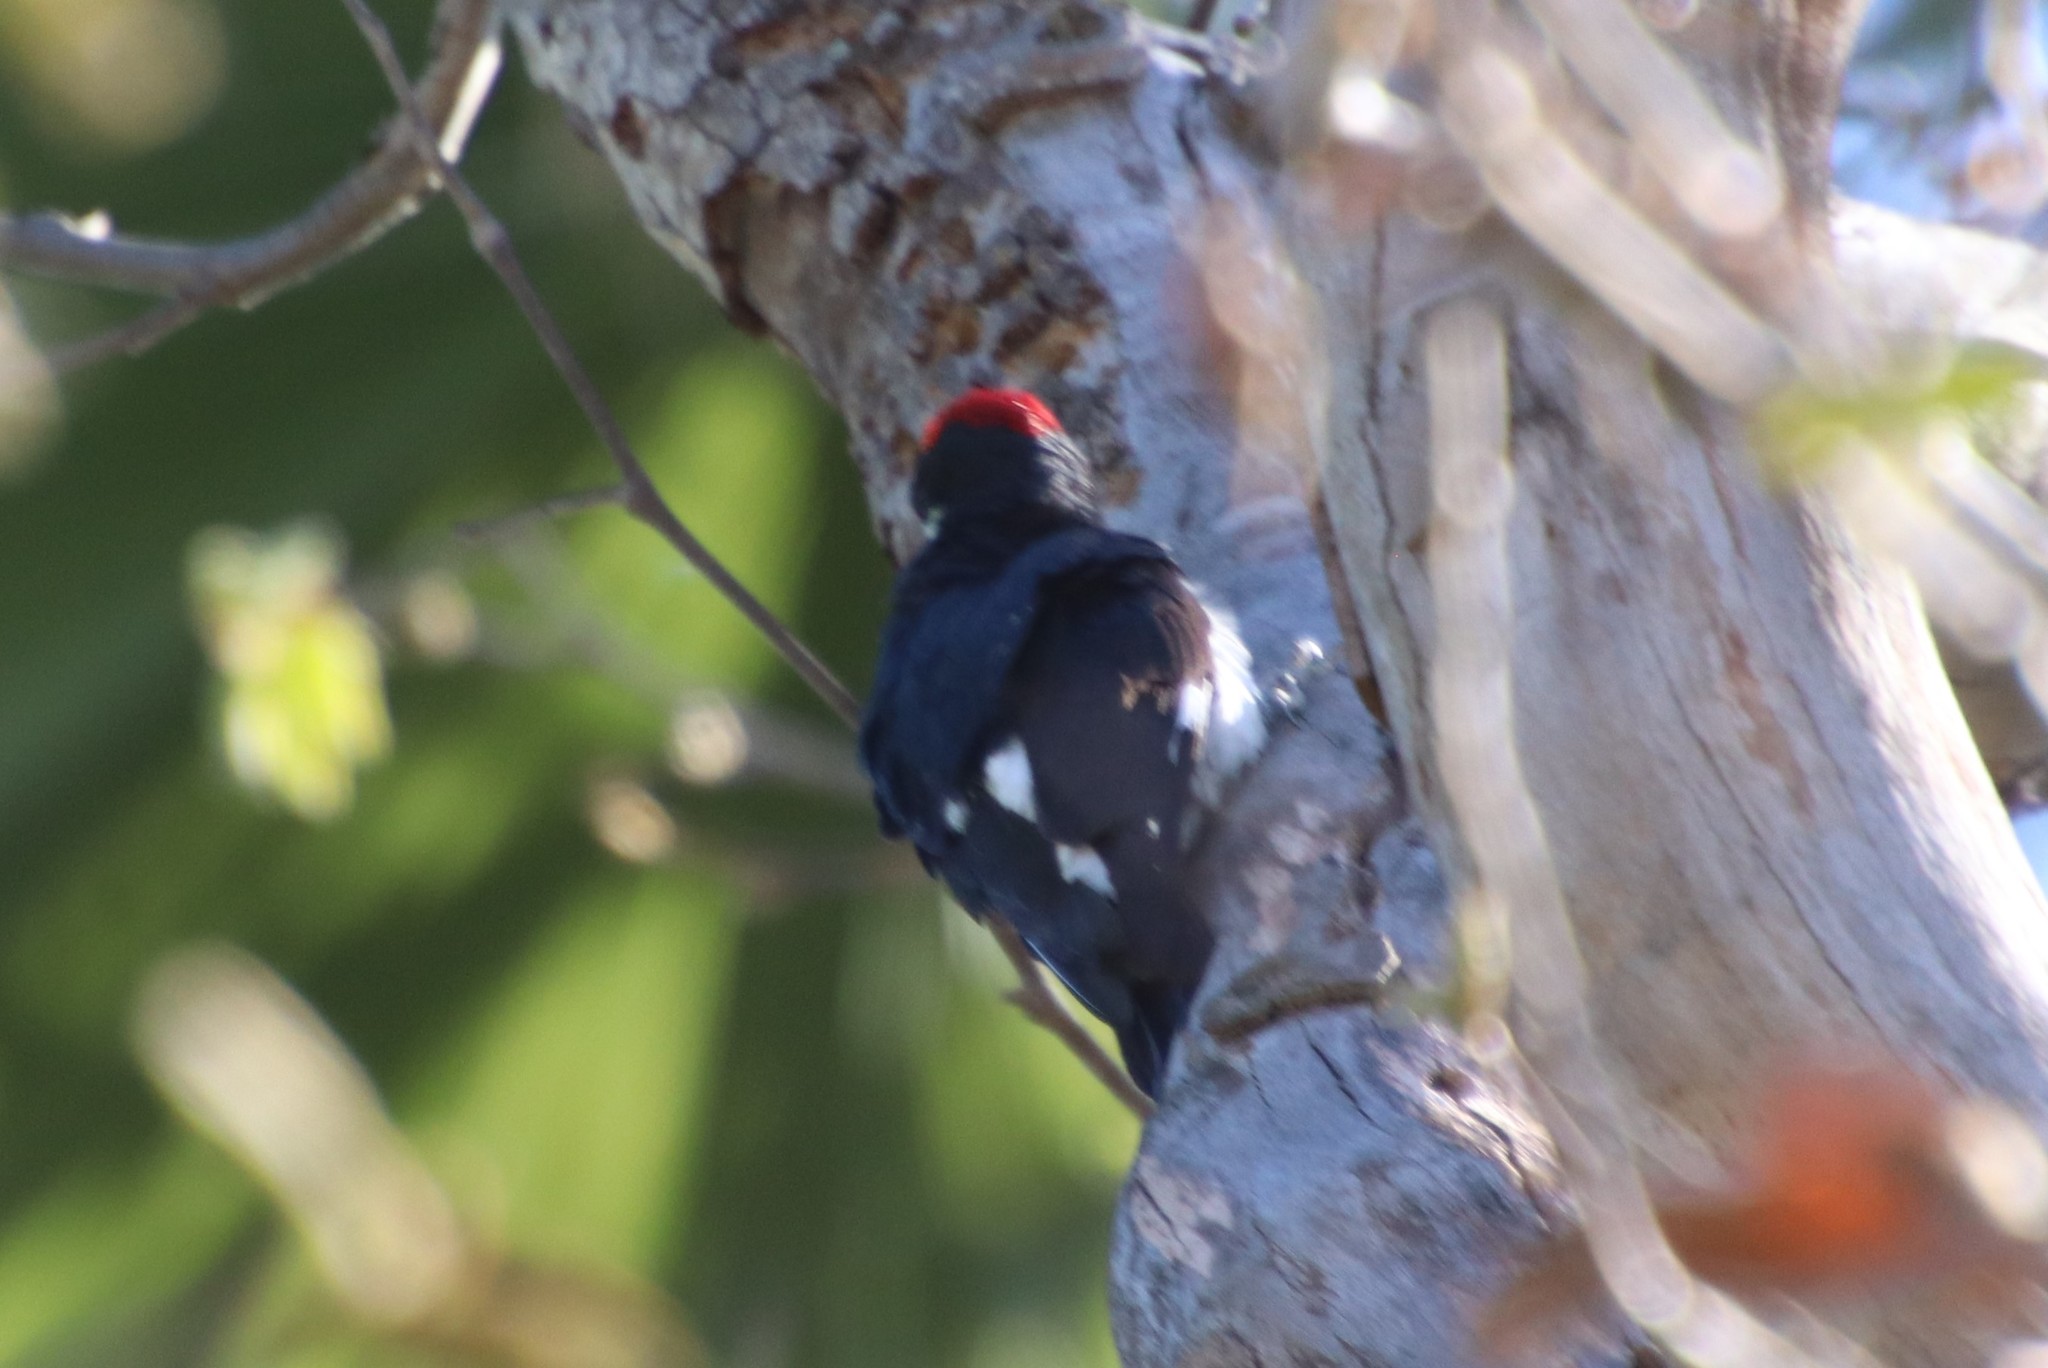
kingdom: Animalia
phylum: Chordata
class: Aves
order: Piciformes
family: Picidae
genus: Melanerpes
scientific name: Melanerpes formicivorus
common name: Acorn woodpecker
